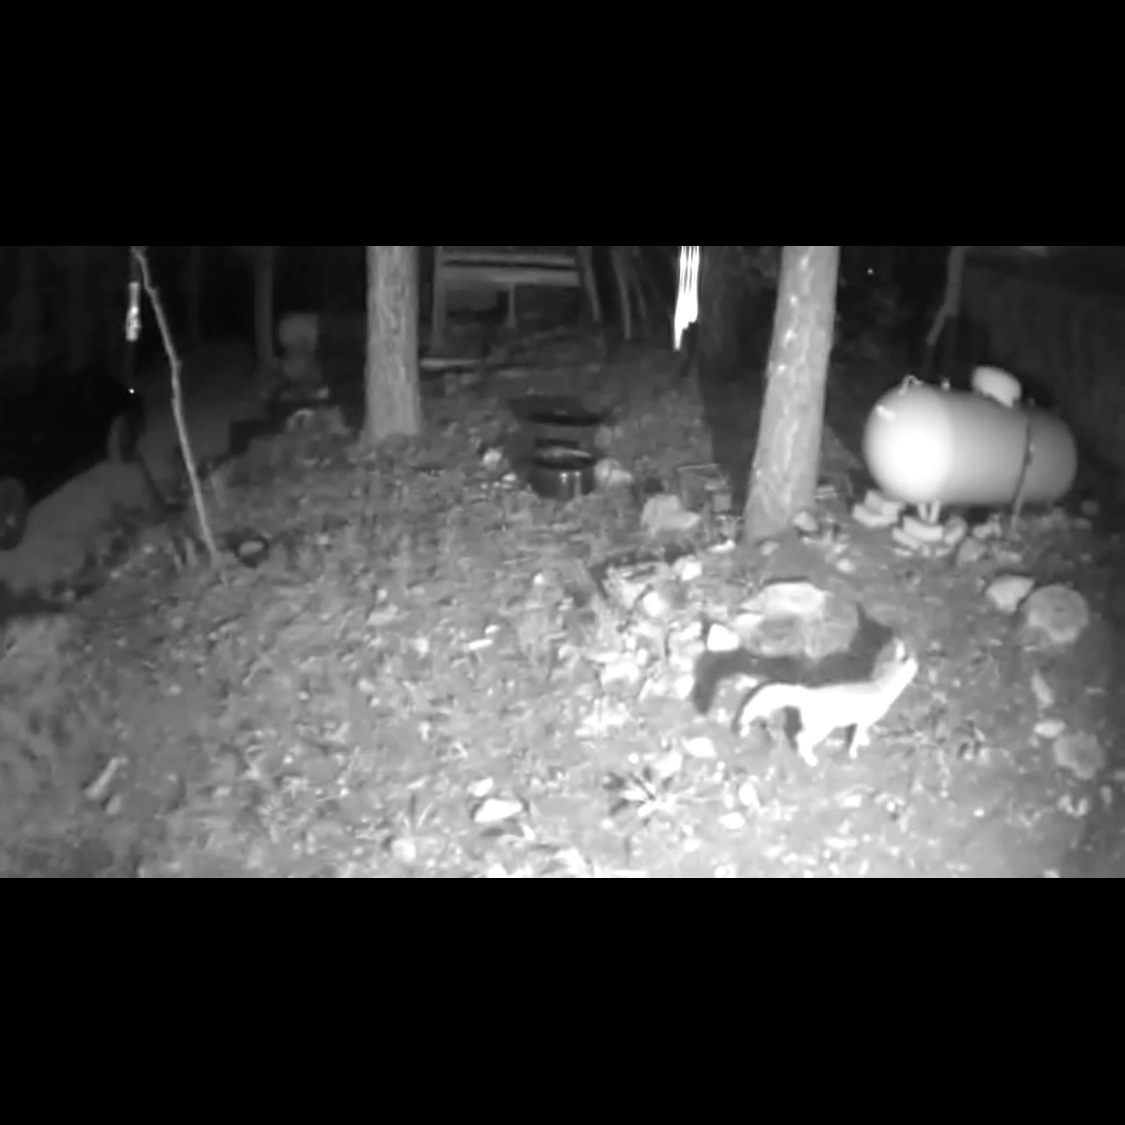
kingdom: Animalia
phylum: Chordata
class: Mammalia
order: Carnivora
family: Canidae
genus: Urocyon
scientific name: Urocyon cinereoargenteus
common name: Gray fox
